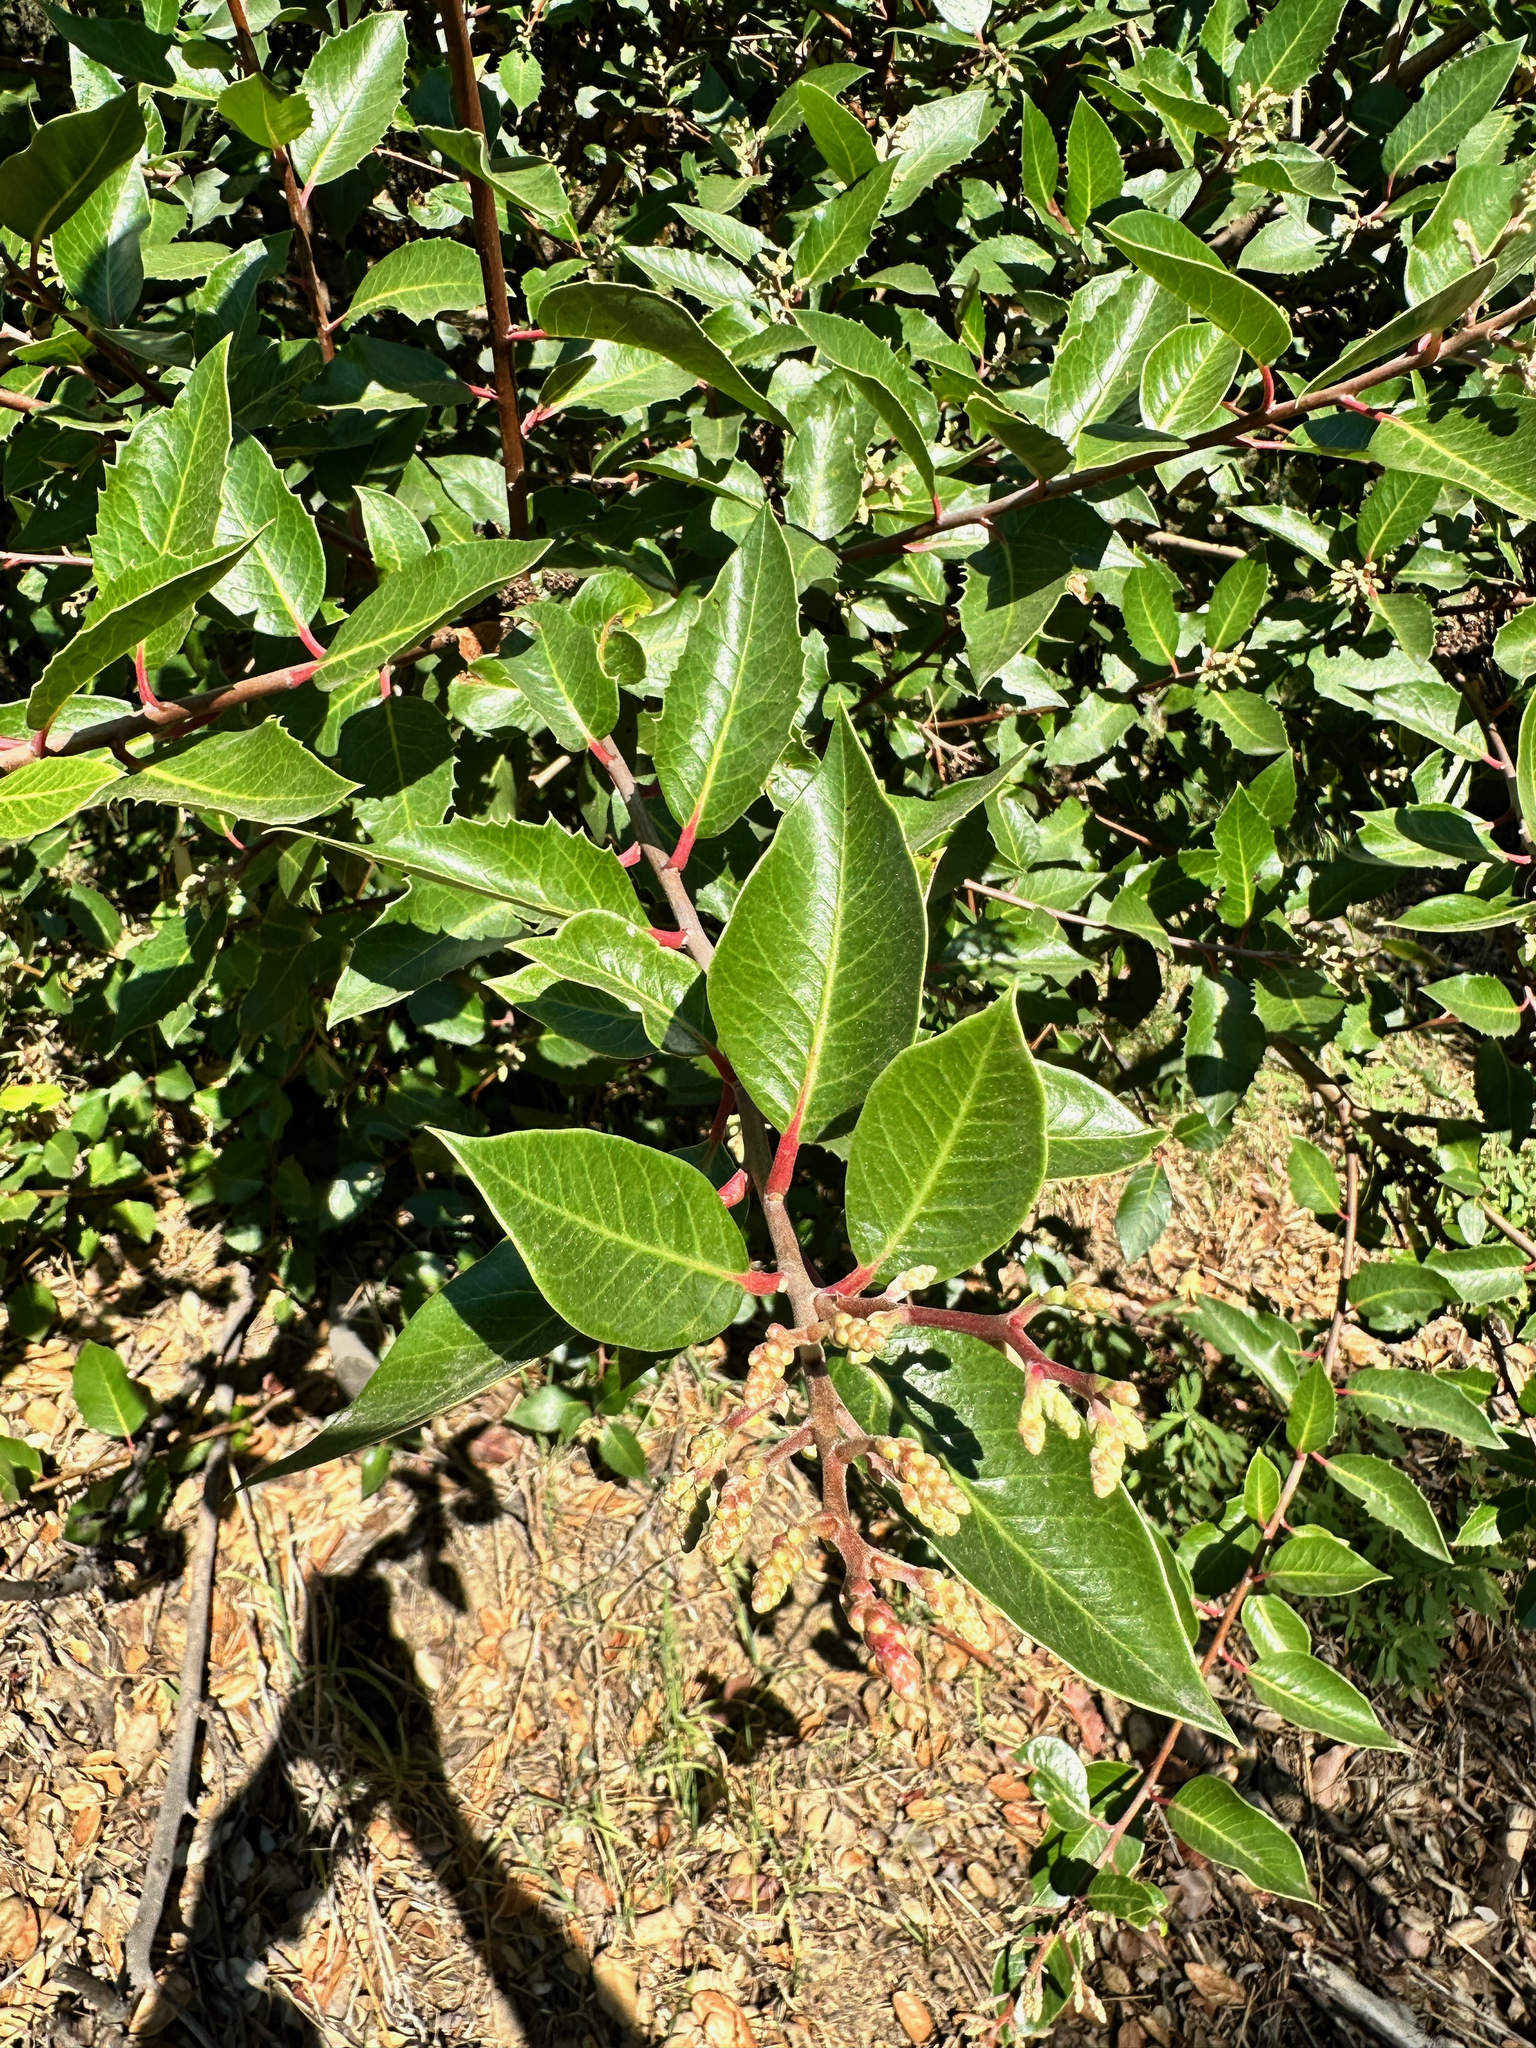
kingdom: Plantae
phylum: Tracheophyta
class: Magnoliopsida
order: Sapindales
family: Anacardiaceae
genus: Rhus
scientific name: Rhus ovata
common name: Sugar sumac
